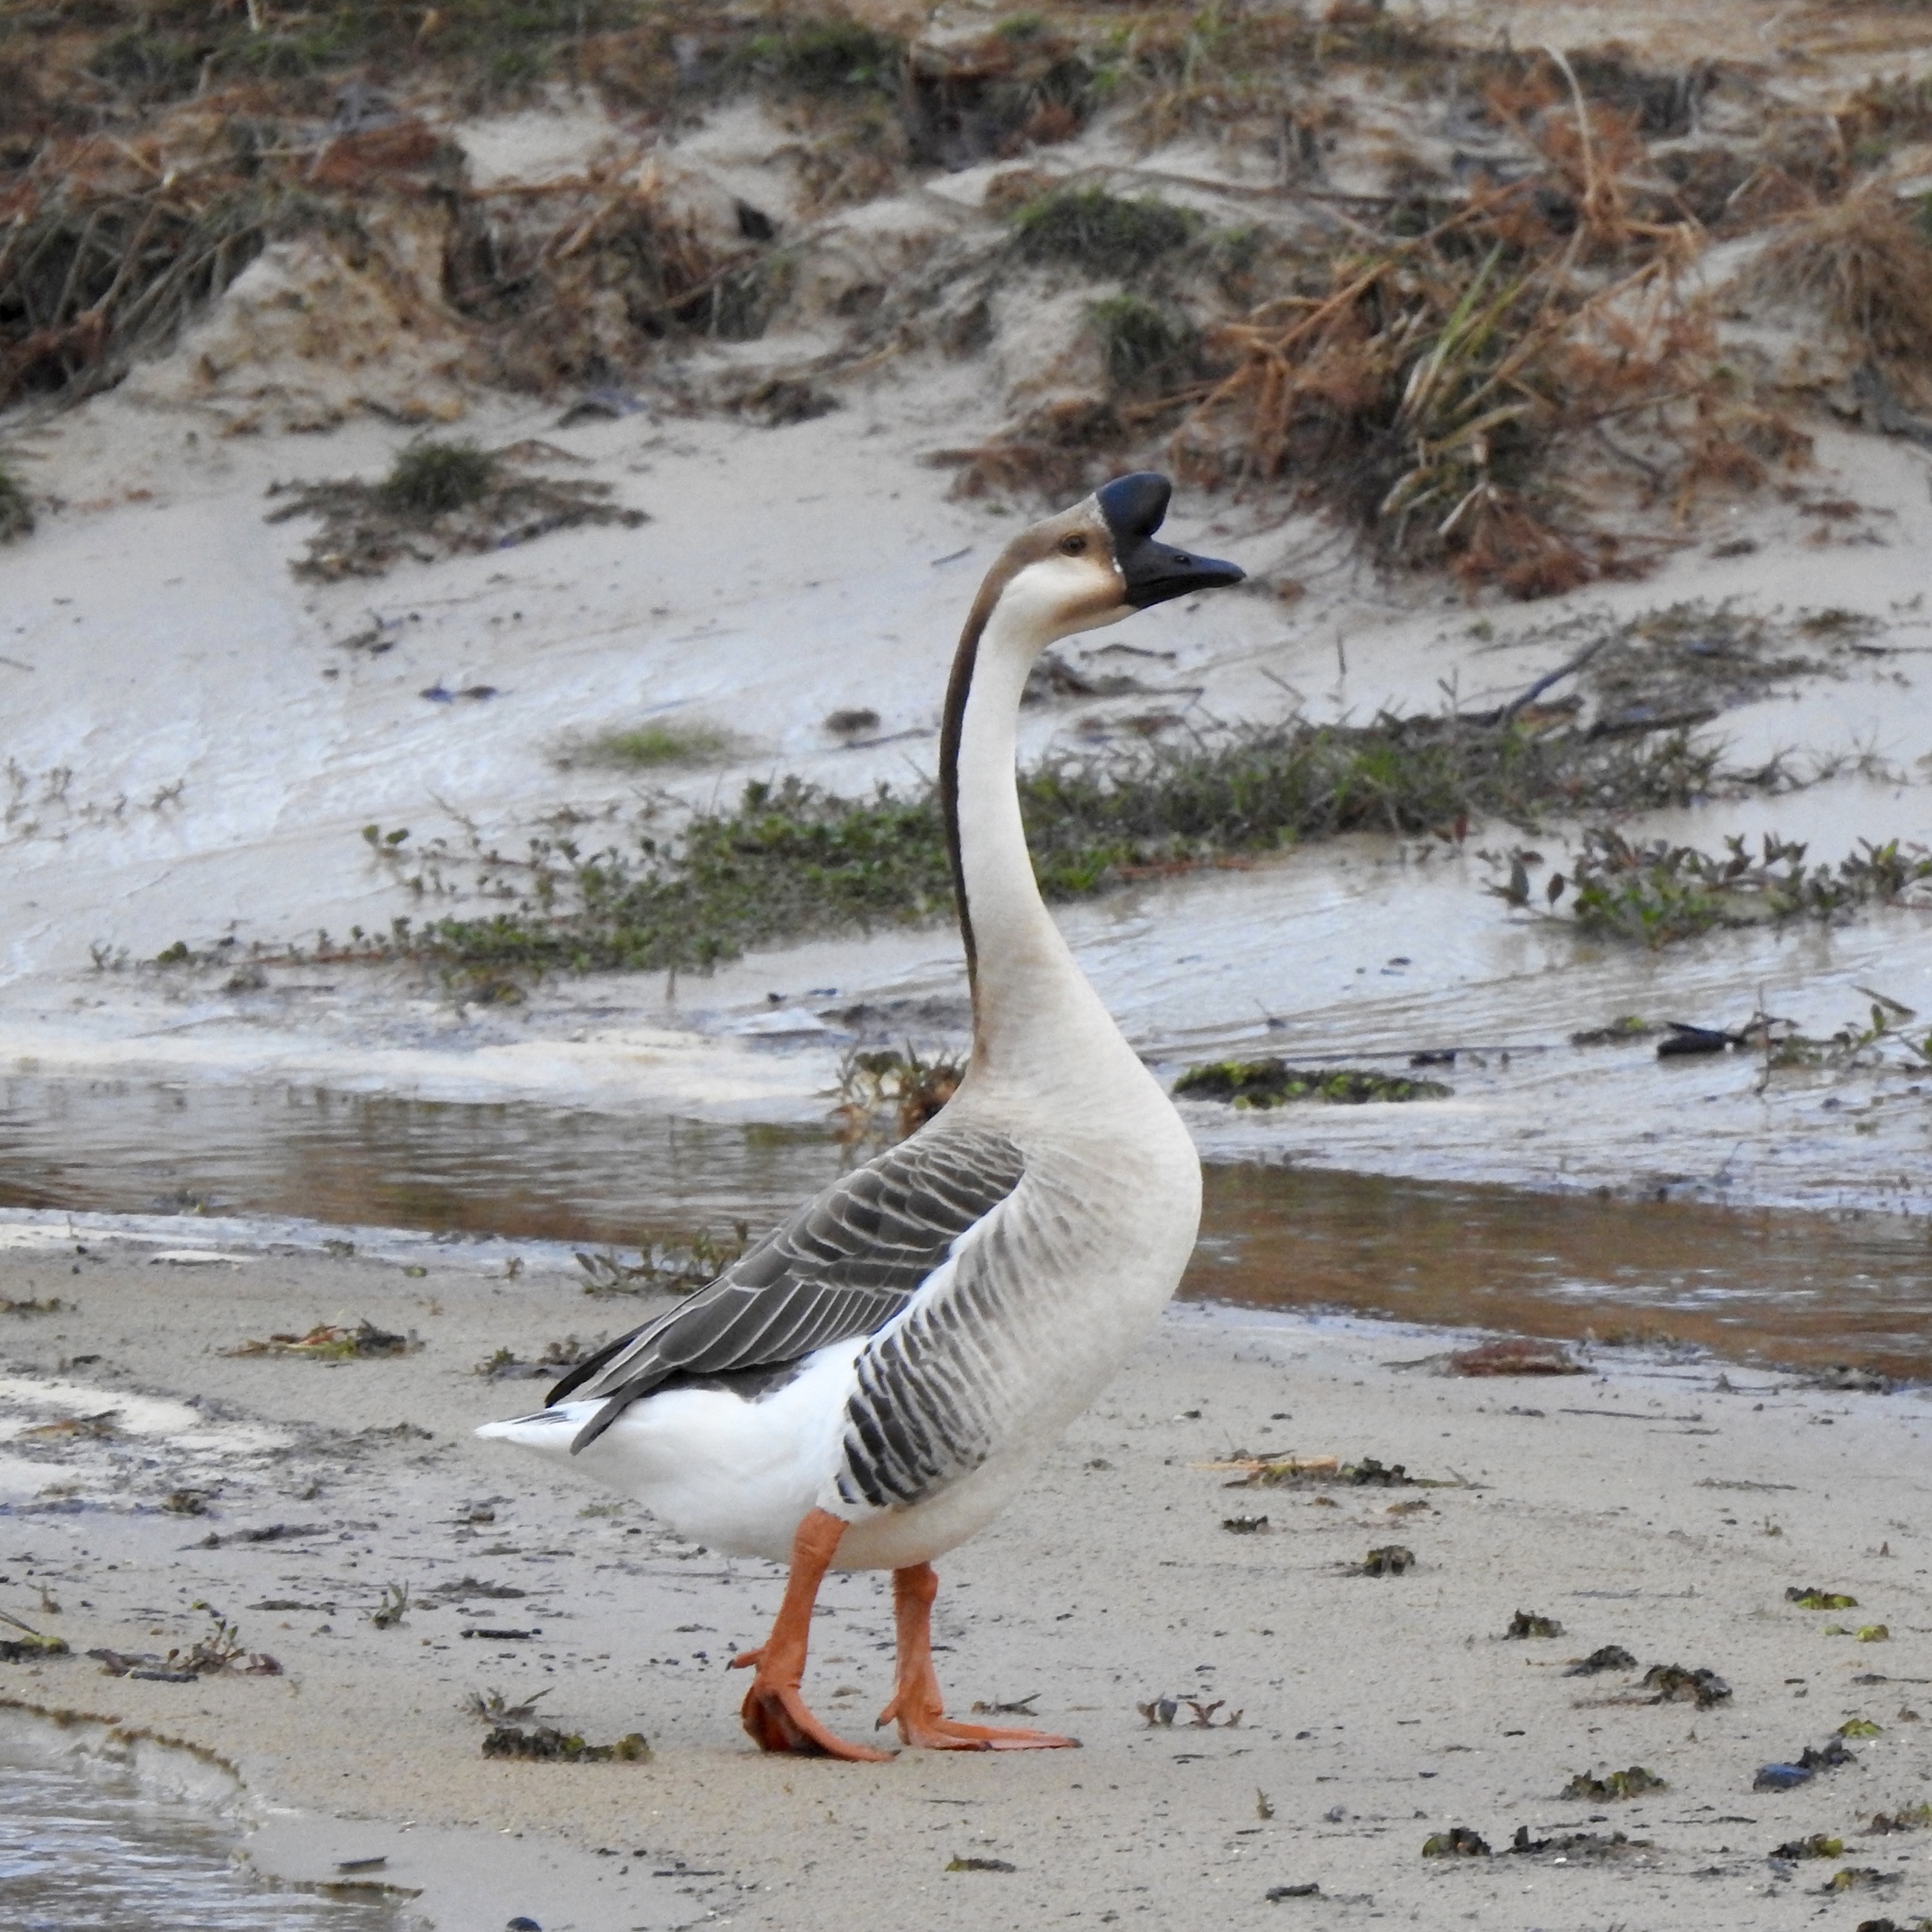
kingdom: Animalia
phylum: Chordata
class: Aves
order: Anseriformes
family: Anatidae
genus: Anser
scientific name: Anser cygnoides
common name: Swan goose
